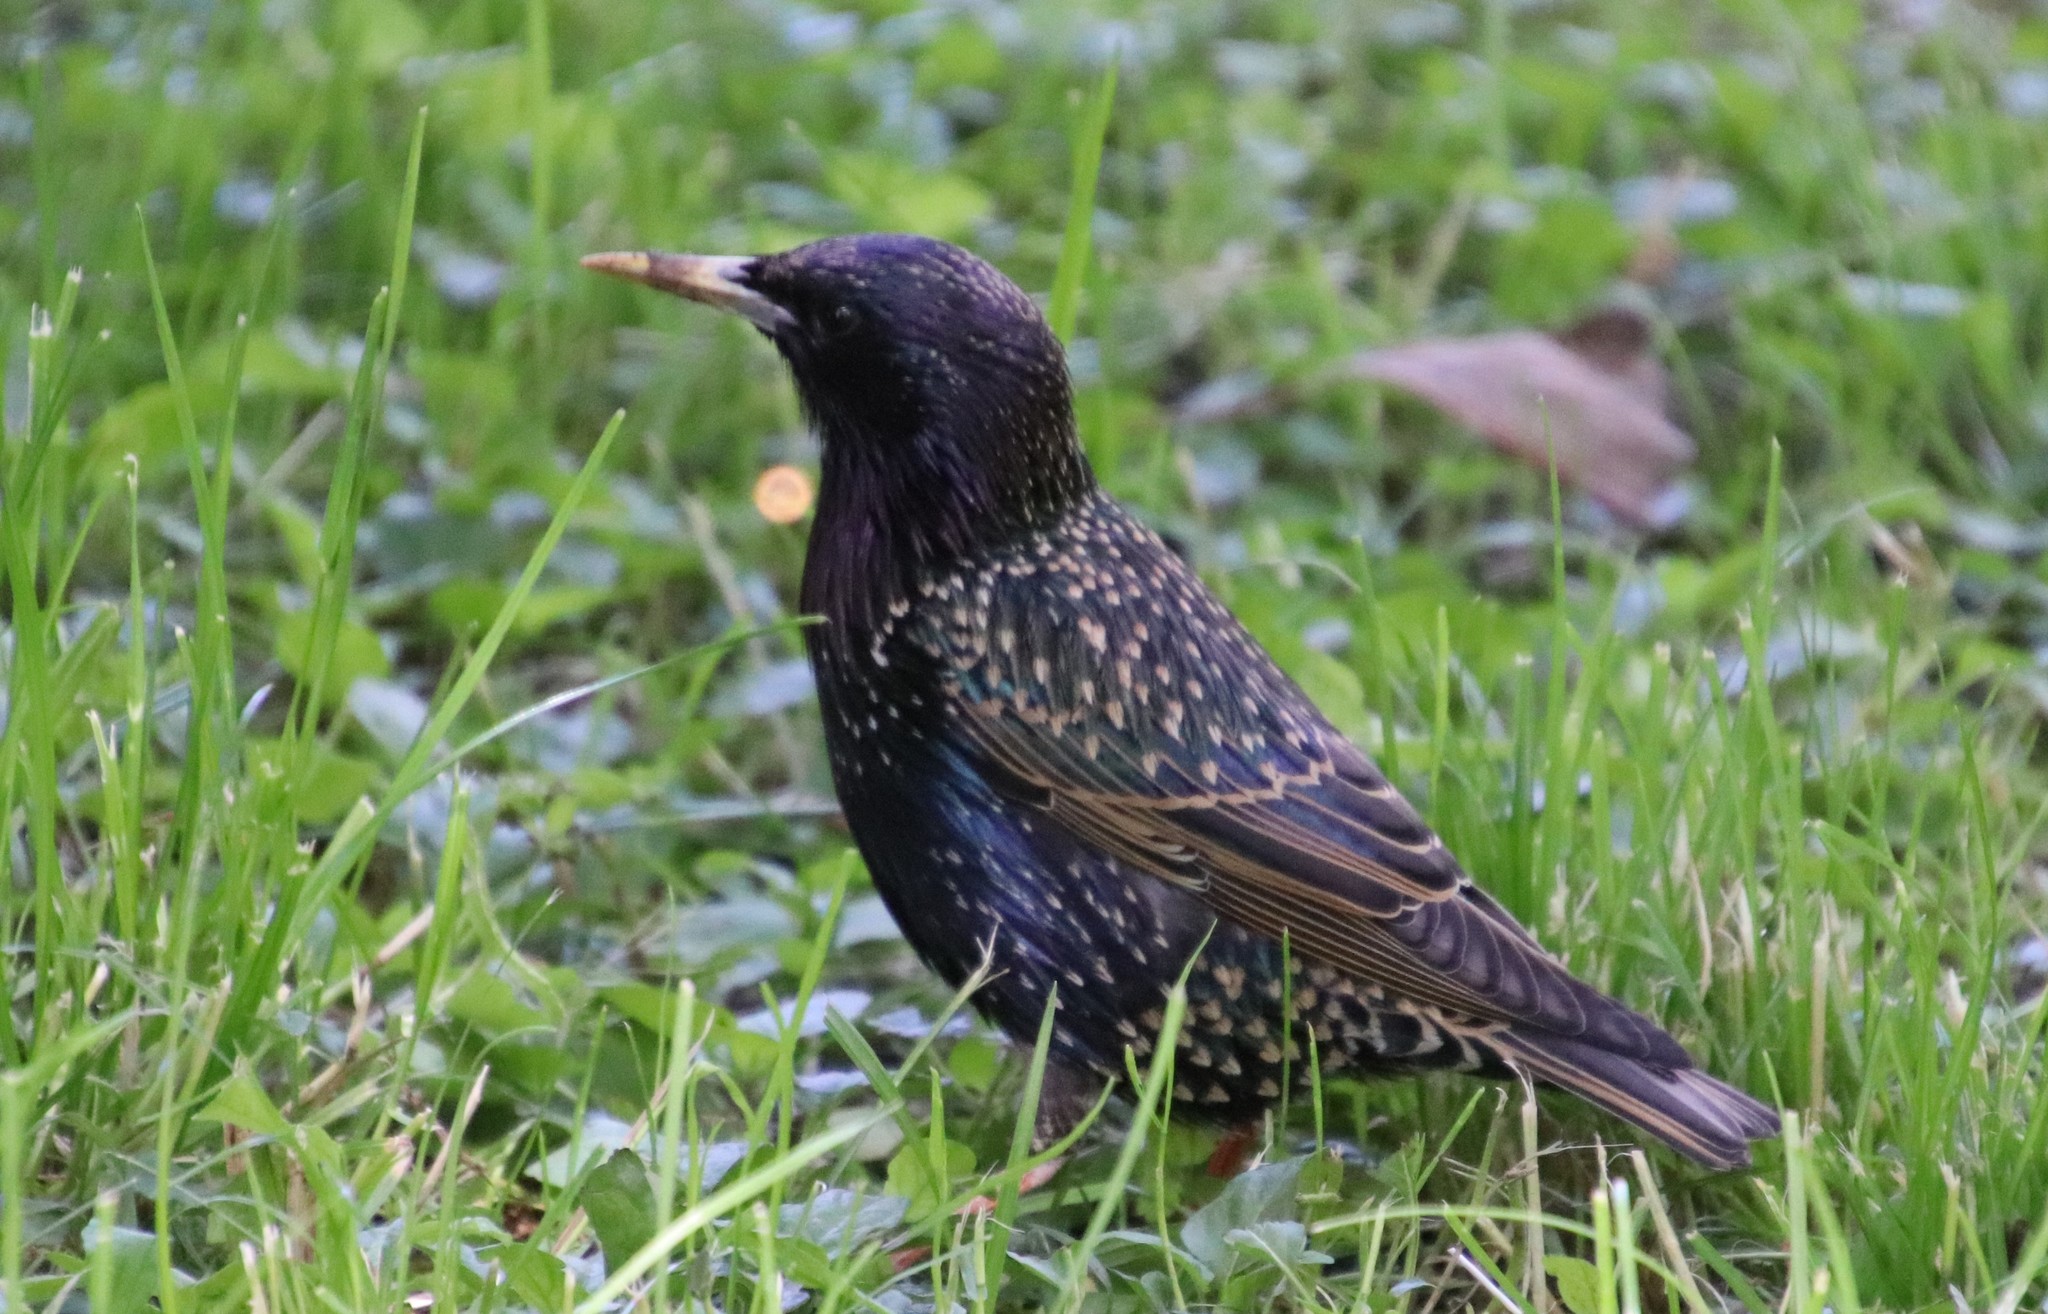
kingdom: Animalia
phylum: Chordata
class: Aves
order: Passeriformes
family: Sturnidae
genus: Sturnus
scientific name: Sturnus vulgaris
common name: Common starling
